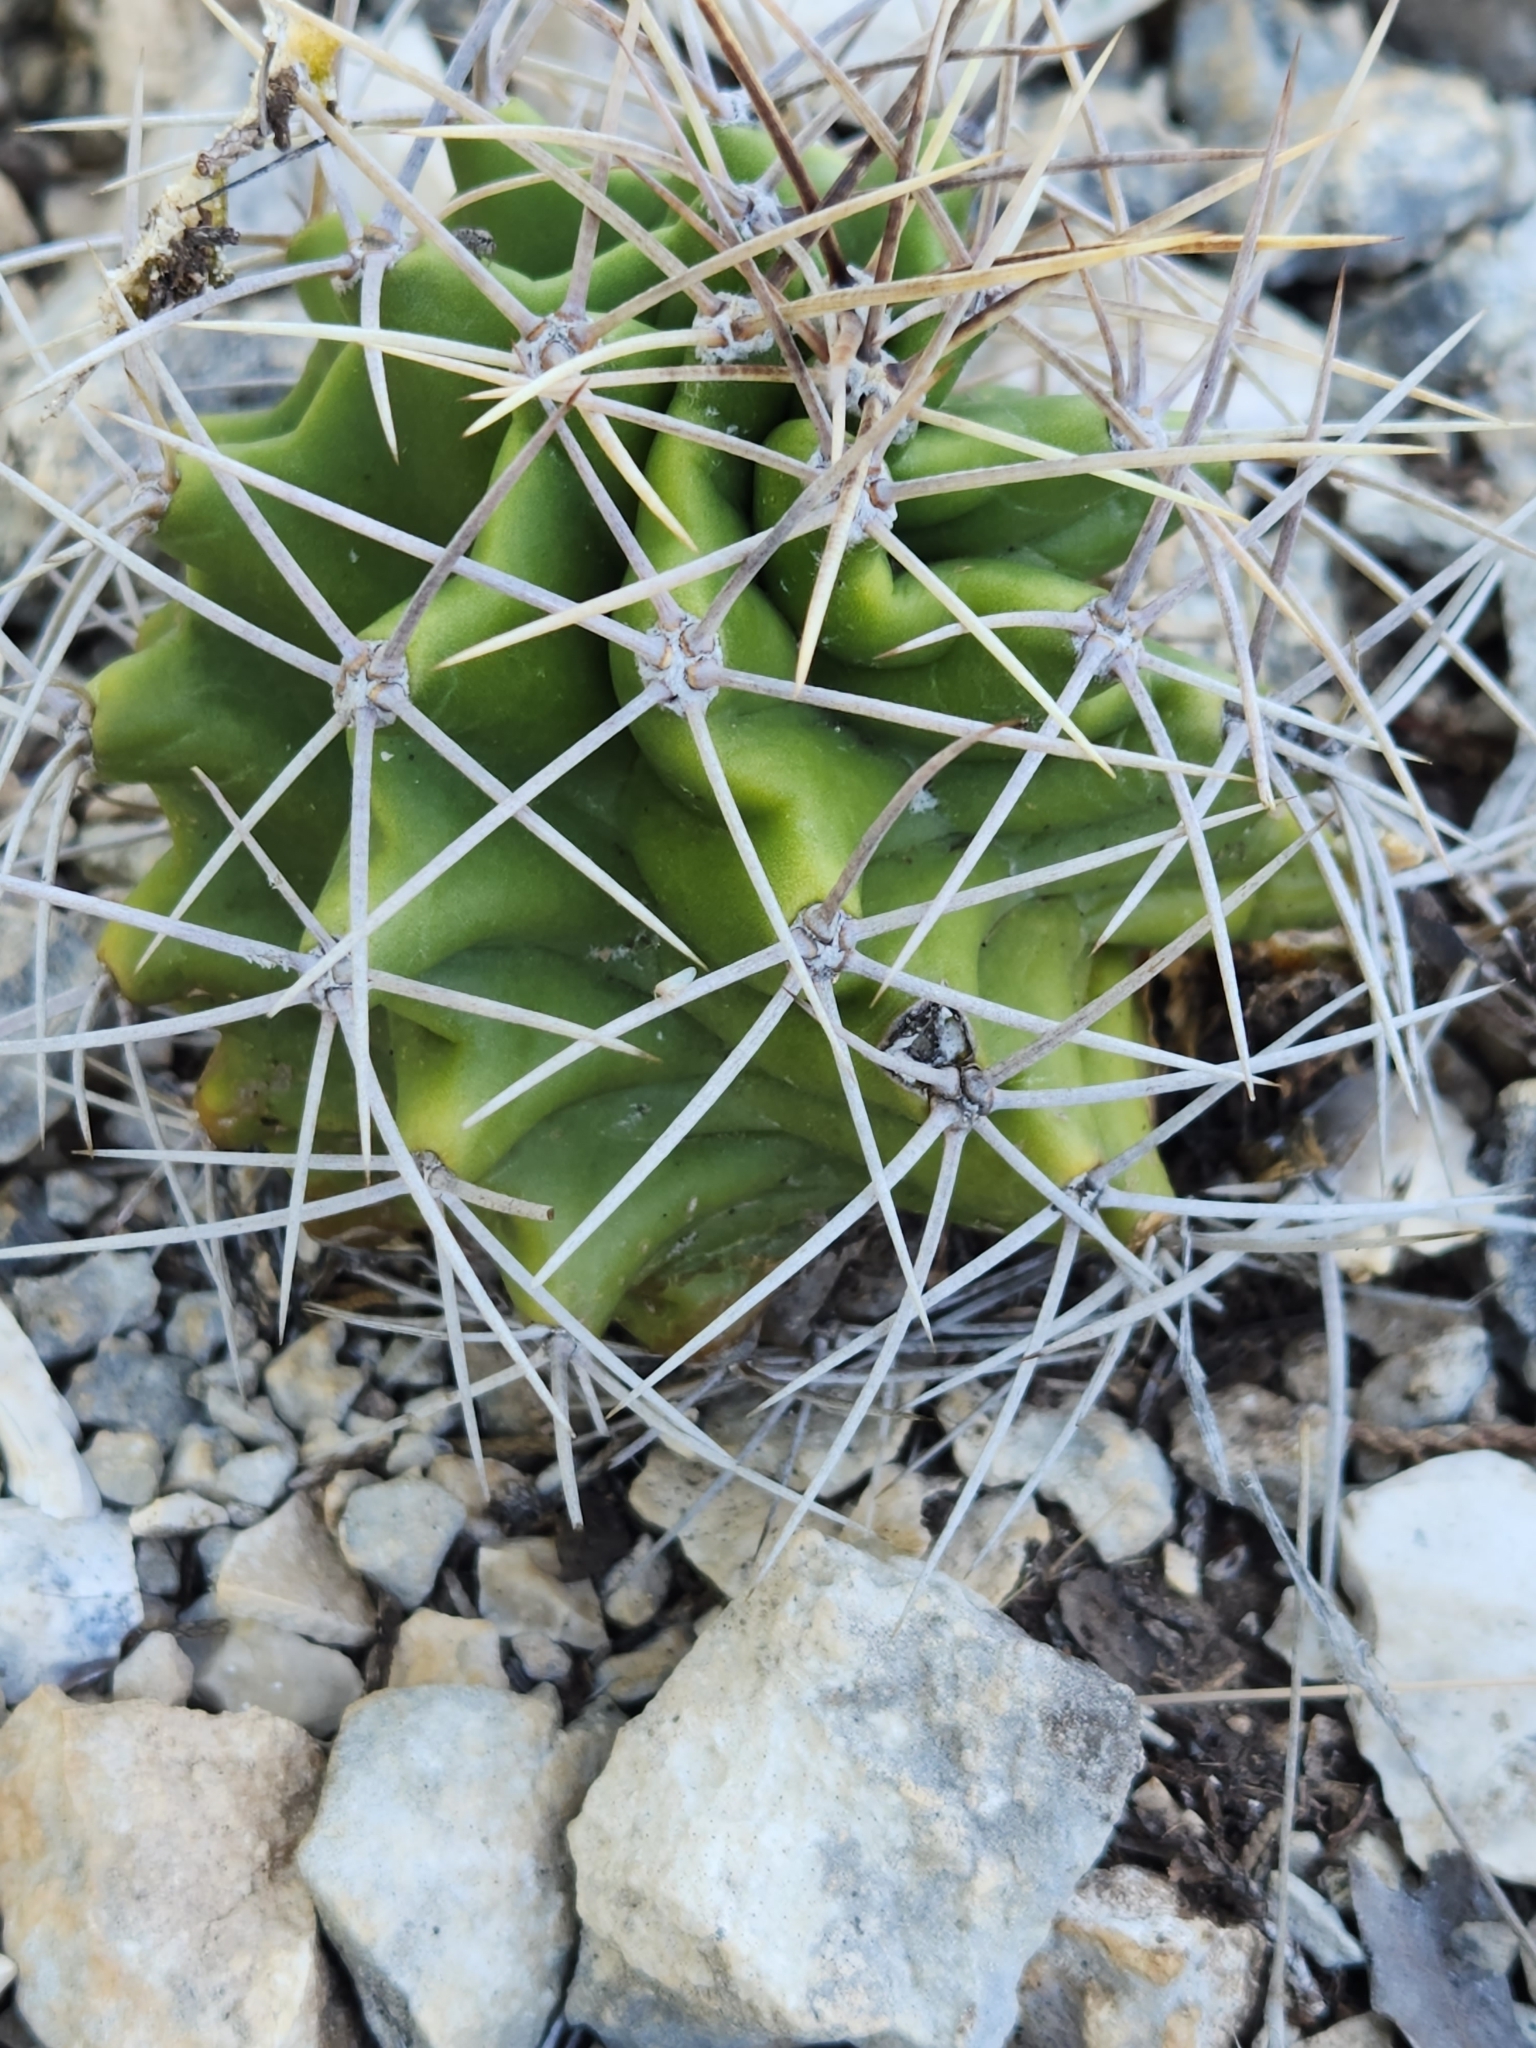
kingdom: Plantae
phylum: Tracheophyta
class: Magnoliopsida
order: Caryophyllales
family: Cactaceae
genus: Echinocereus
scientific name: Echinocereus coccineus
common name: Scarlet hedgehog cactus
